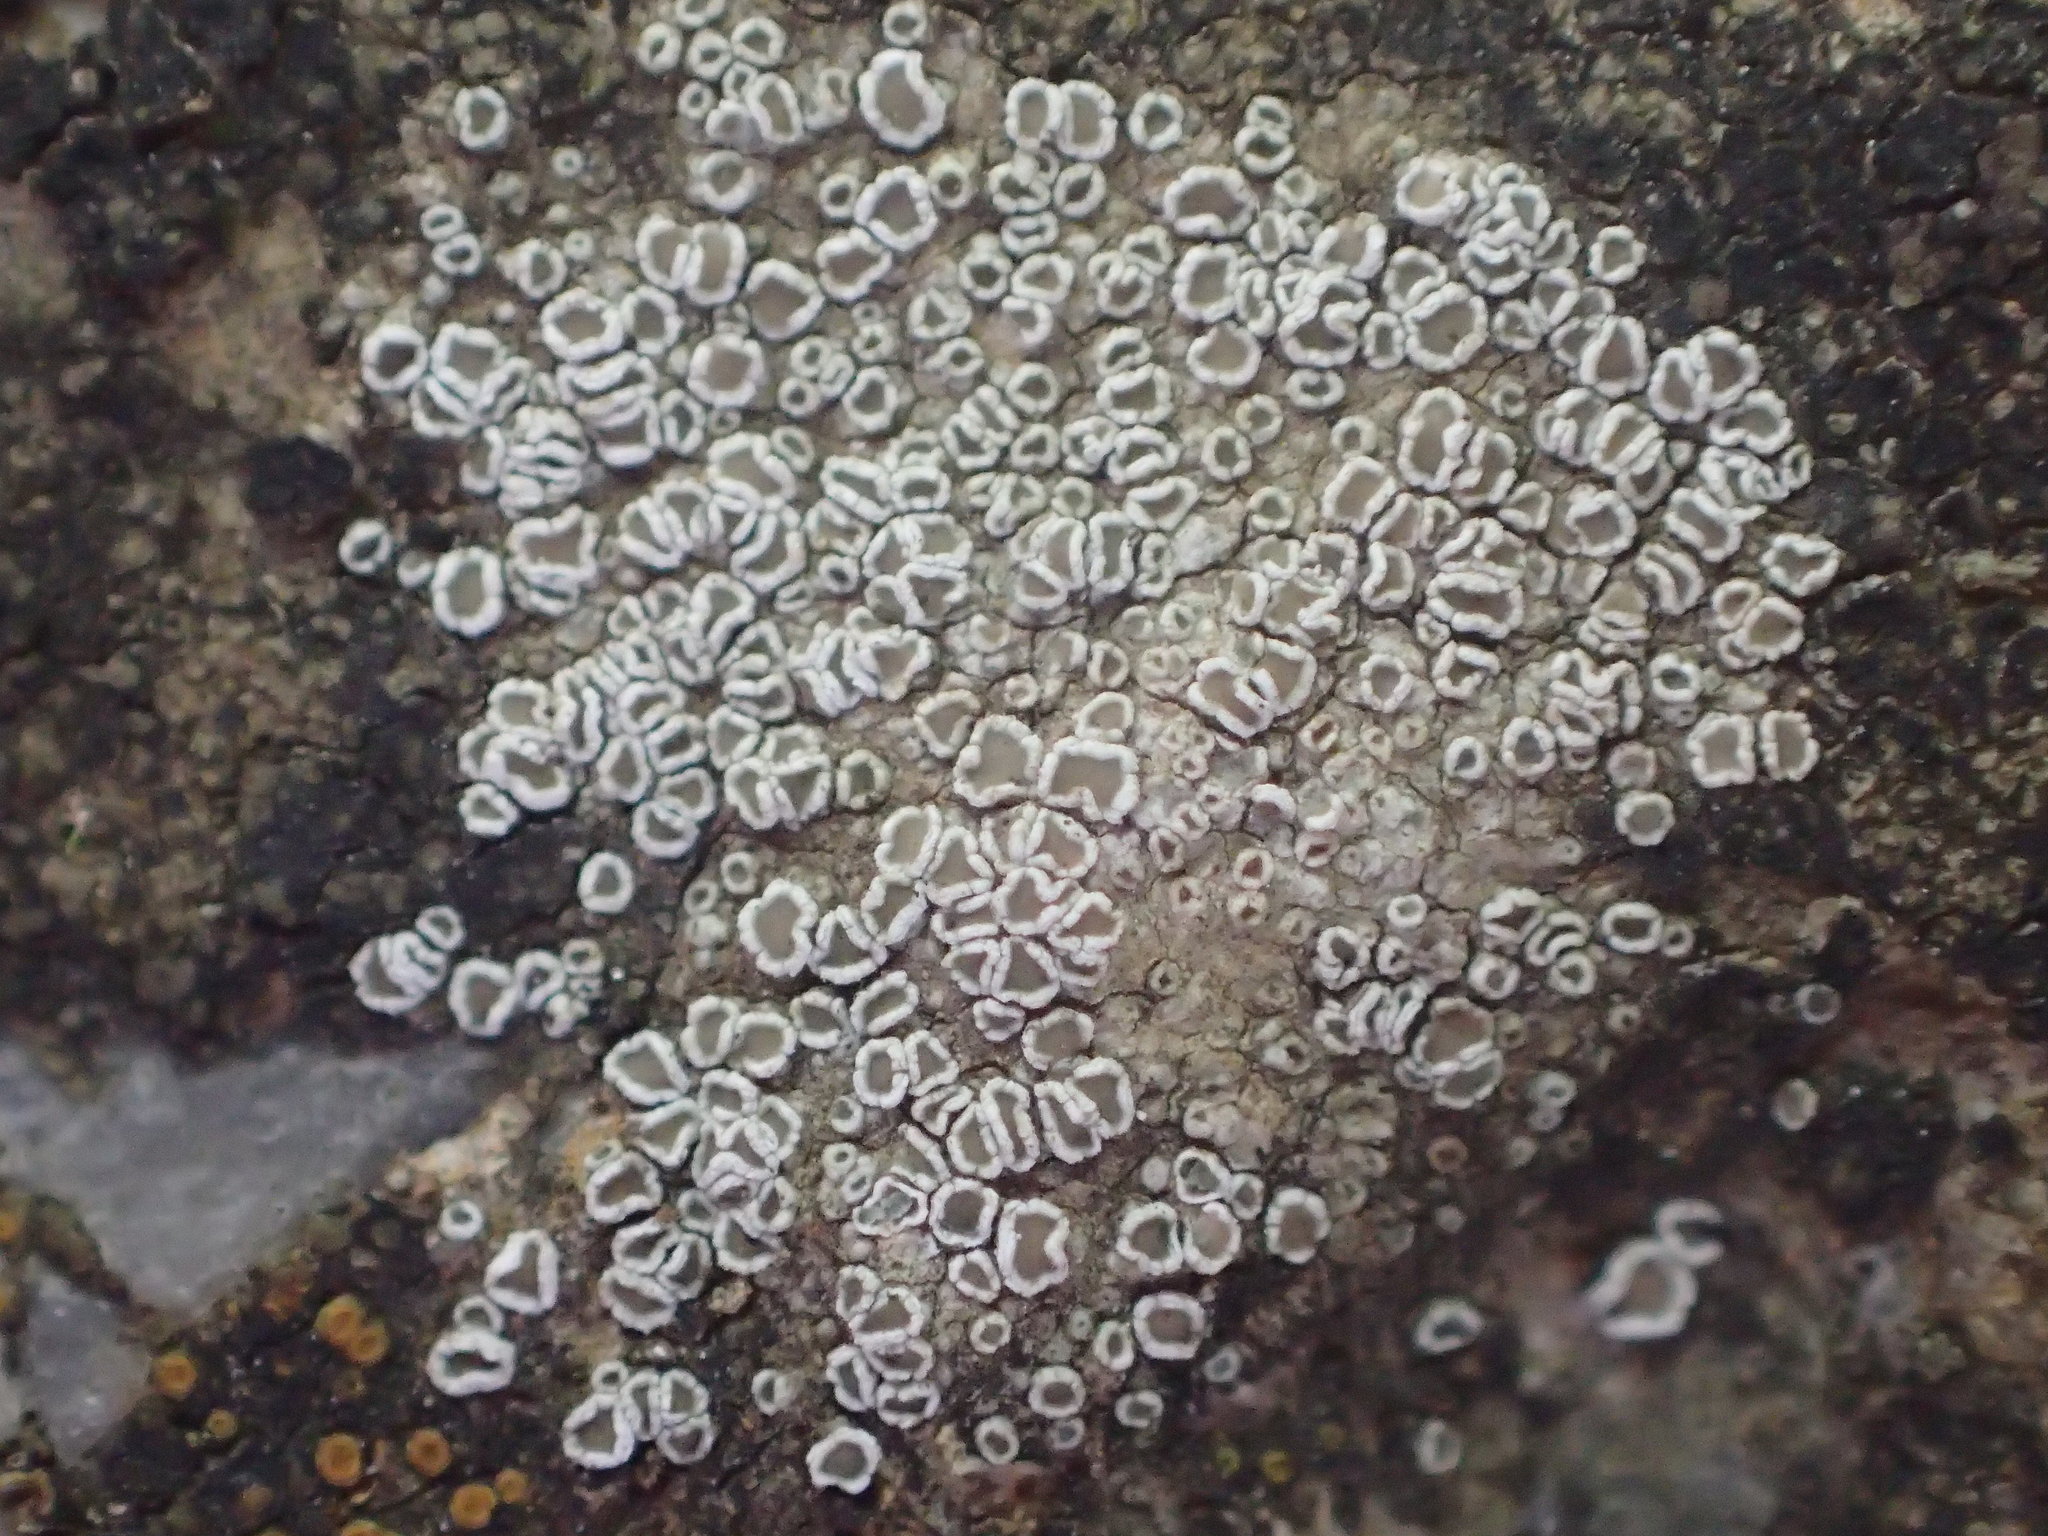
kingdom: Fungi
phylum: Ascomycota
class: Lecanoromycetes
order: Lecanorales
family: Lecanoraceae
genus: Polyozosia
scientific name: Polyozosia dispersa
